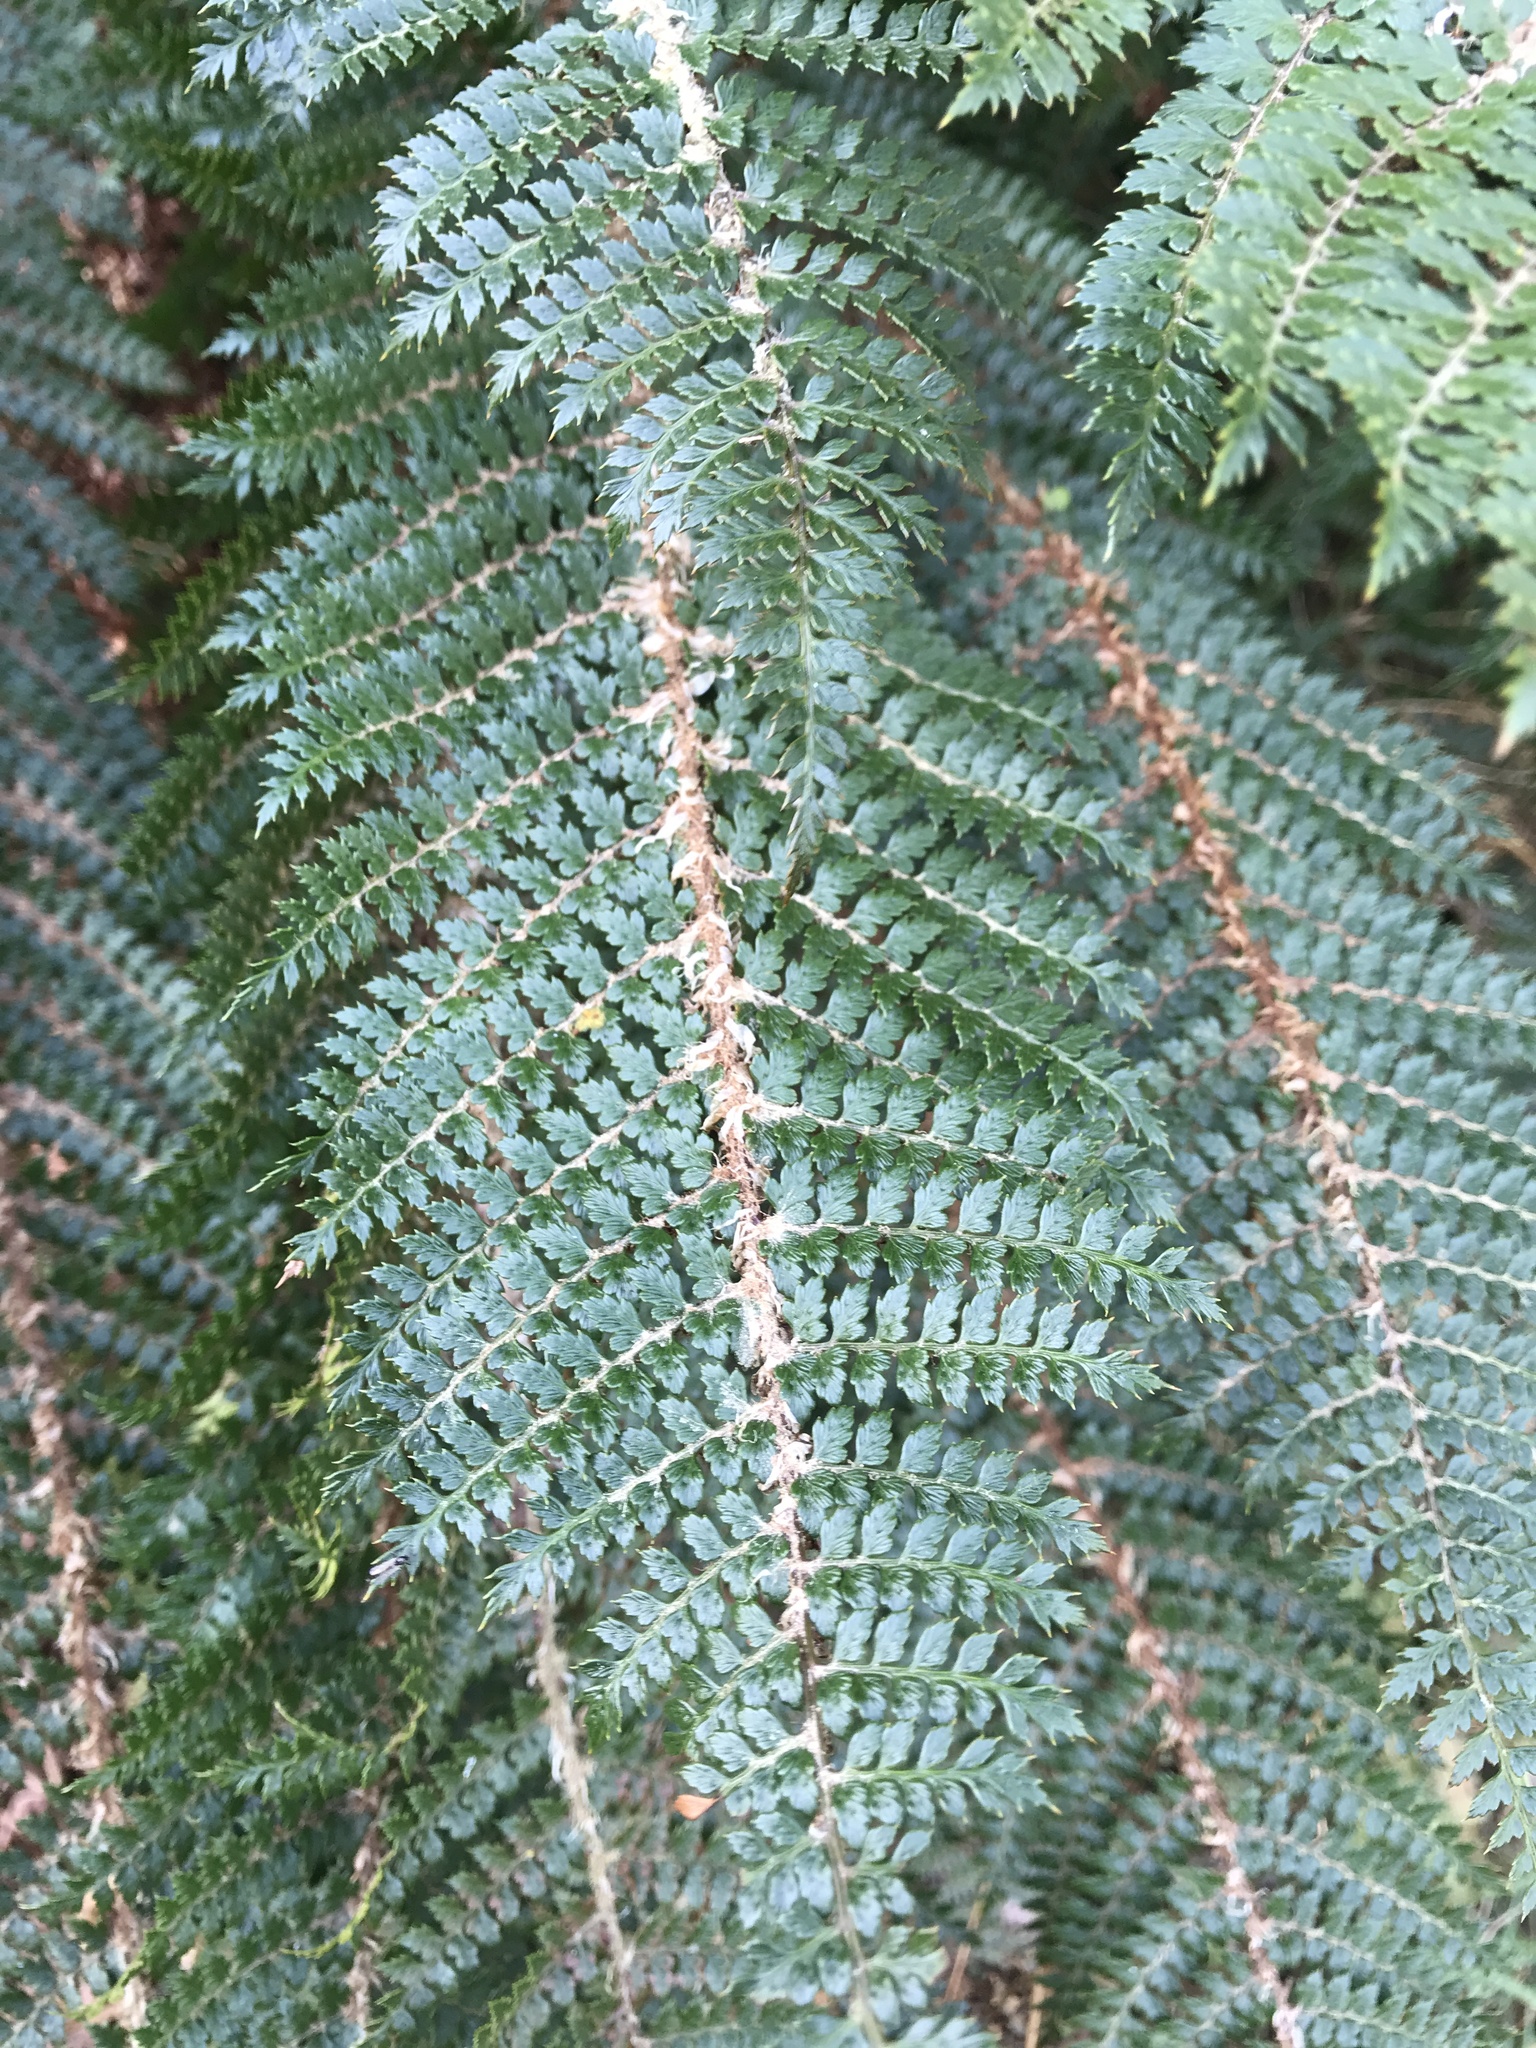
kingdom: Plantae
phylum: Tracheophyta
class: Polypodiopsida
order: Polypodiales
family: Dryopteridaceae
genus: Polystichum
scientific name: Polystichum vestitum
